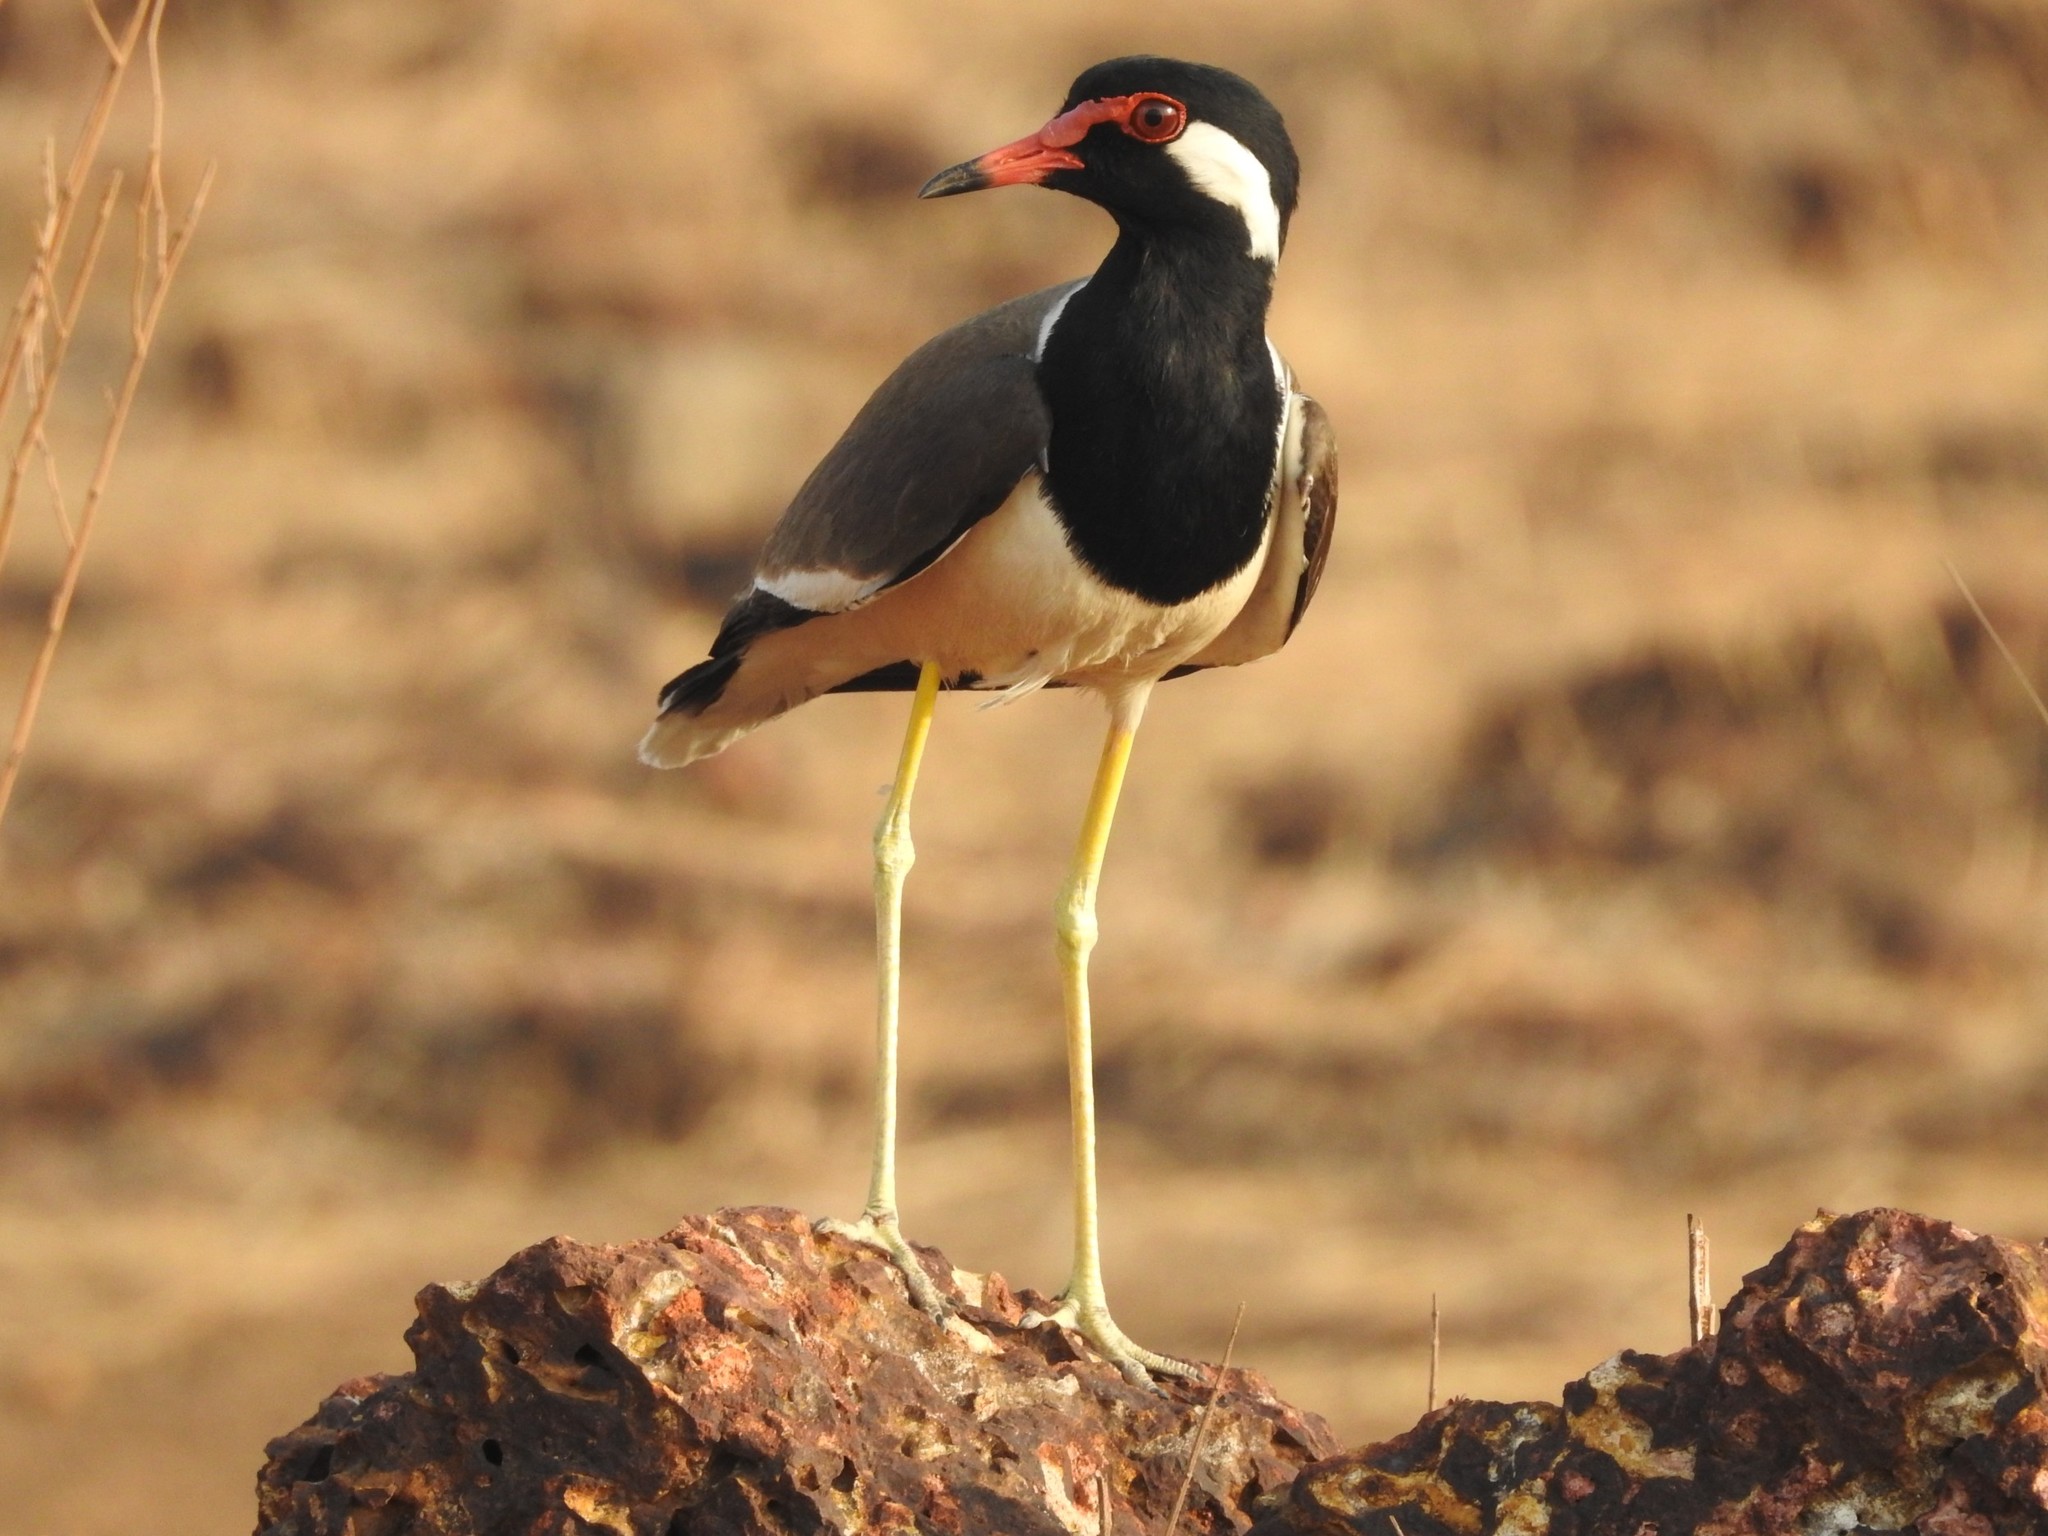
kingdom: Animalia
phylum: Chordata
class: Aves
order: Charadriiformes
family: Charadriidae
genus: Vanellus
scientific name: Vanellus indicus
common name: Red-wattled lapwing
